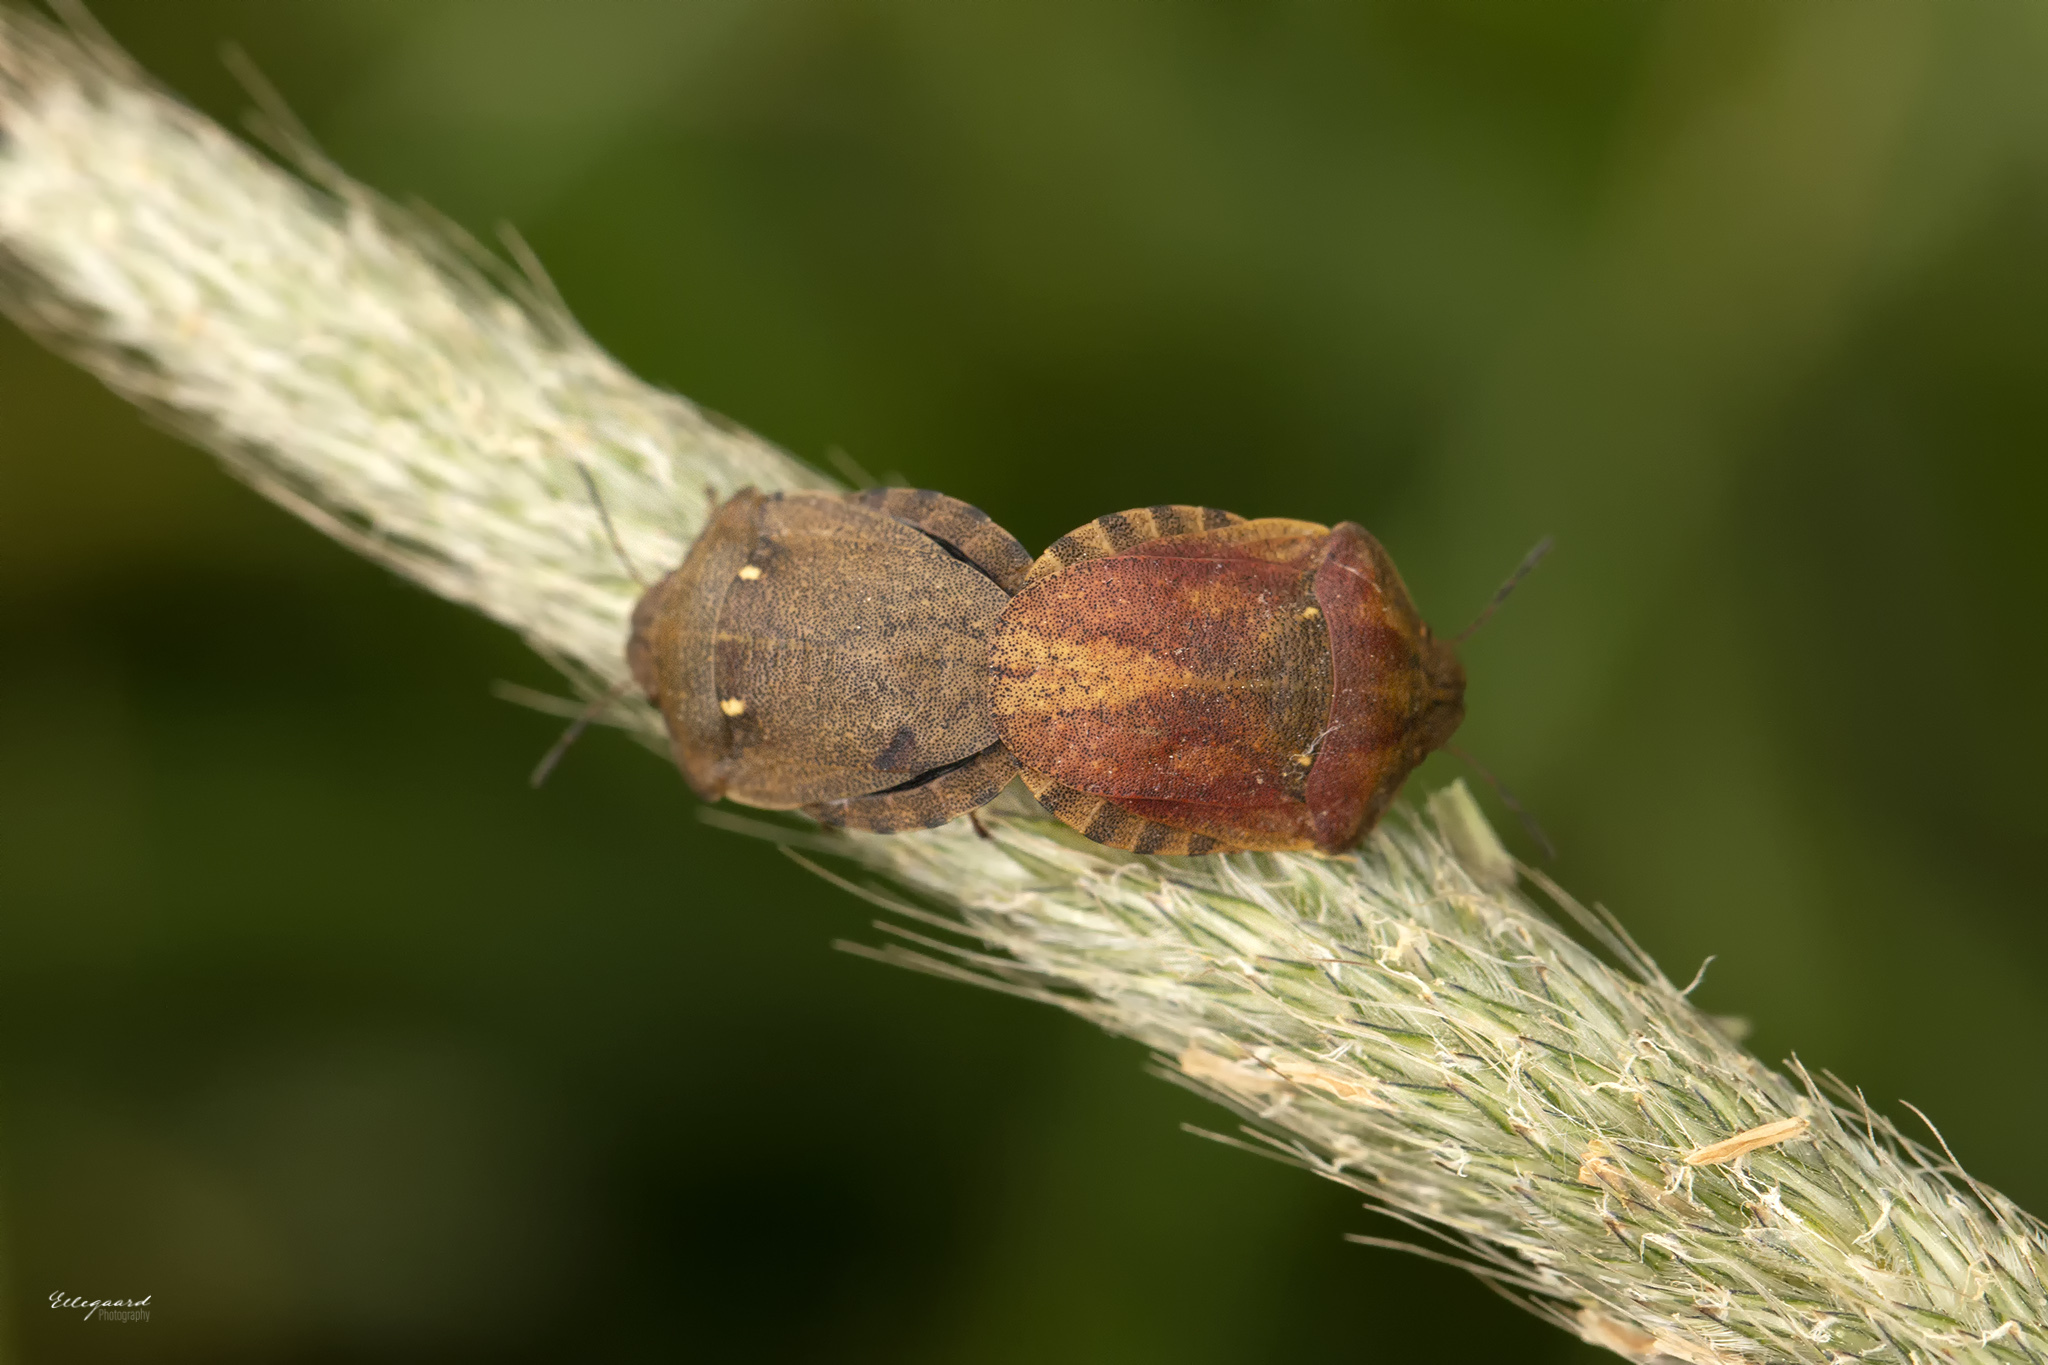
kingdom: Animalia
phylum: Arthropoda
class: Insecta
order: Hemiptera
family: Scutelleridae
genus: Eurygaster
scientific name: Eurygaster testudinaria
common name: Tortoise bug
